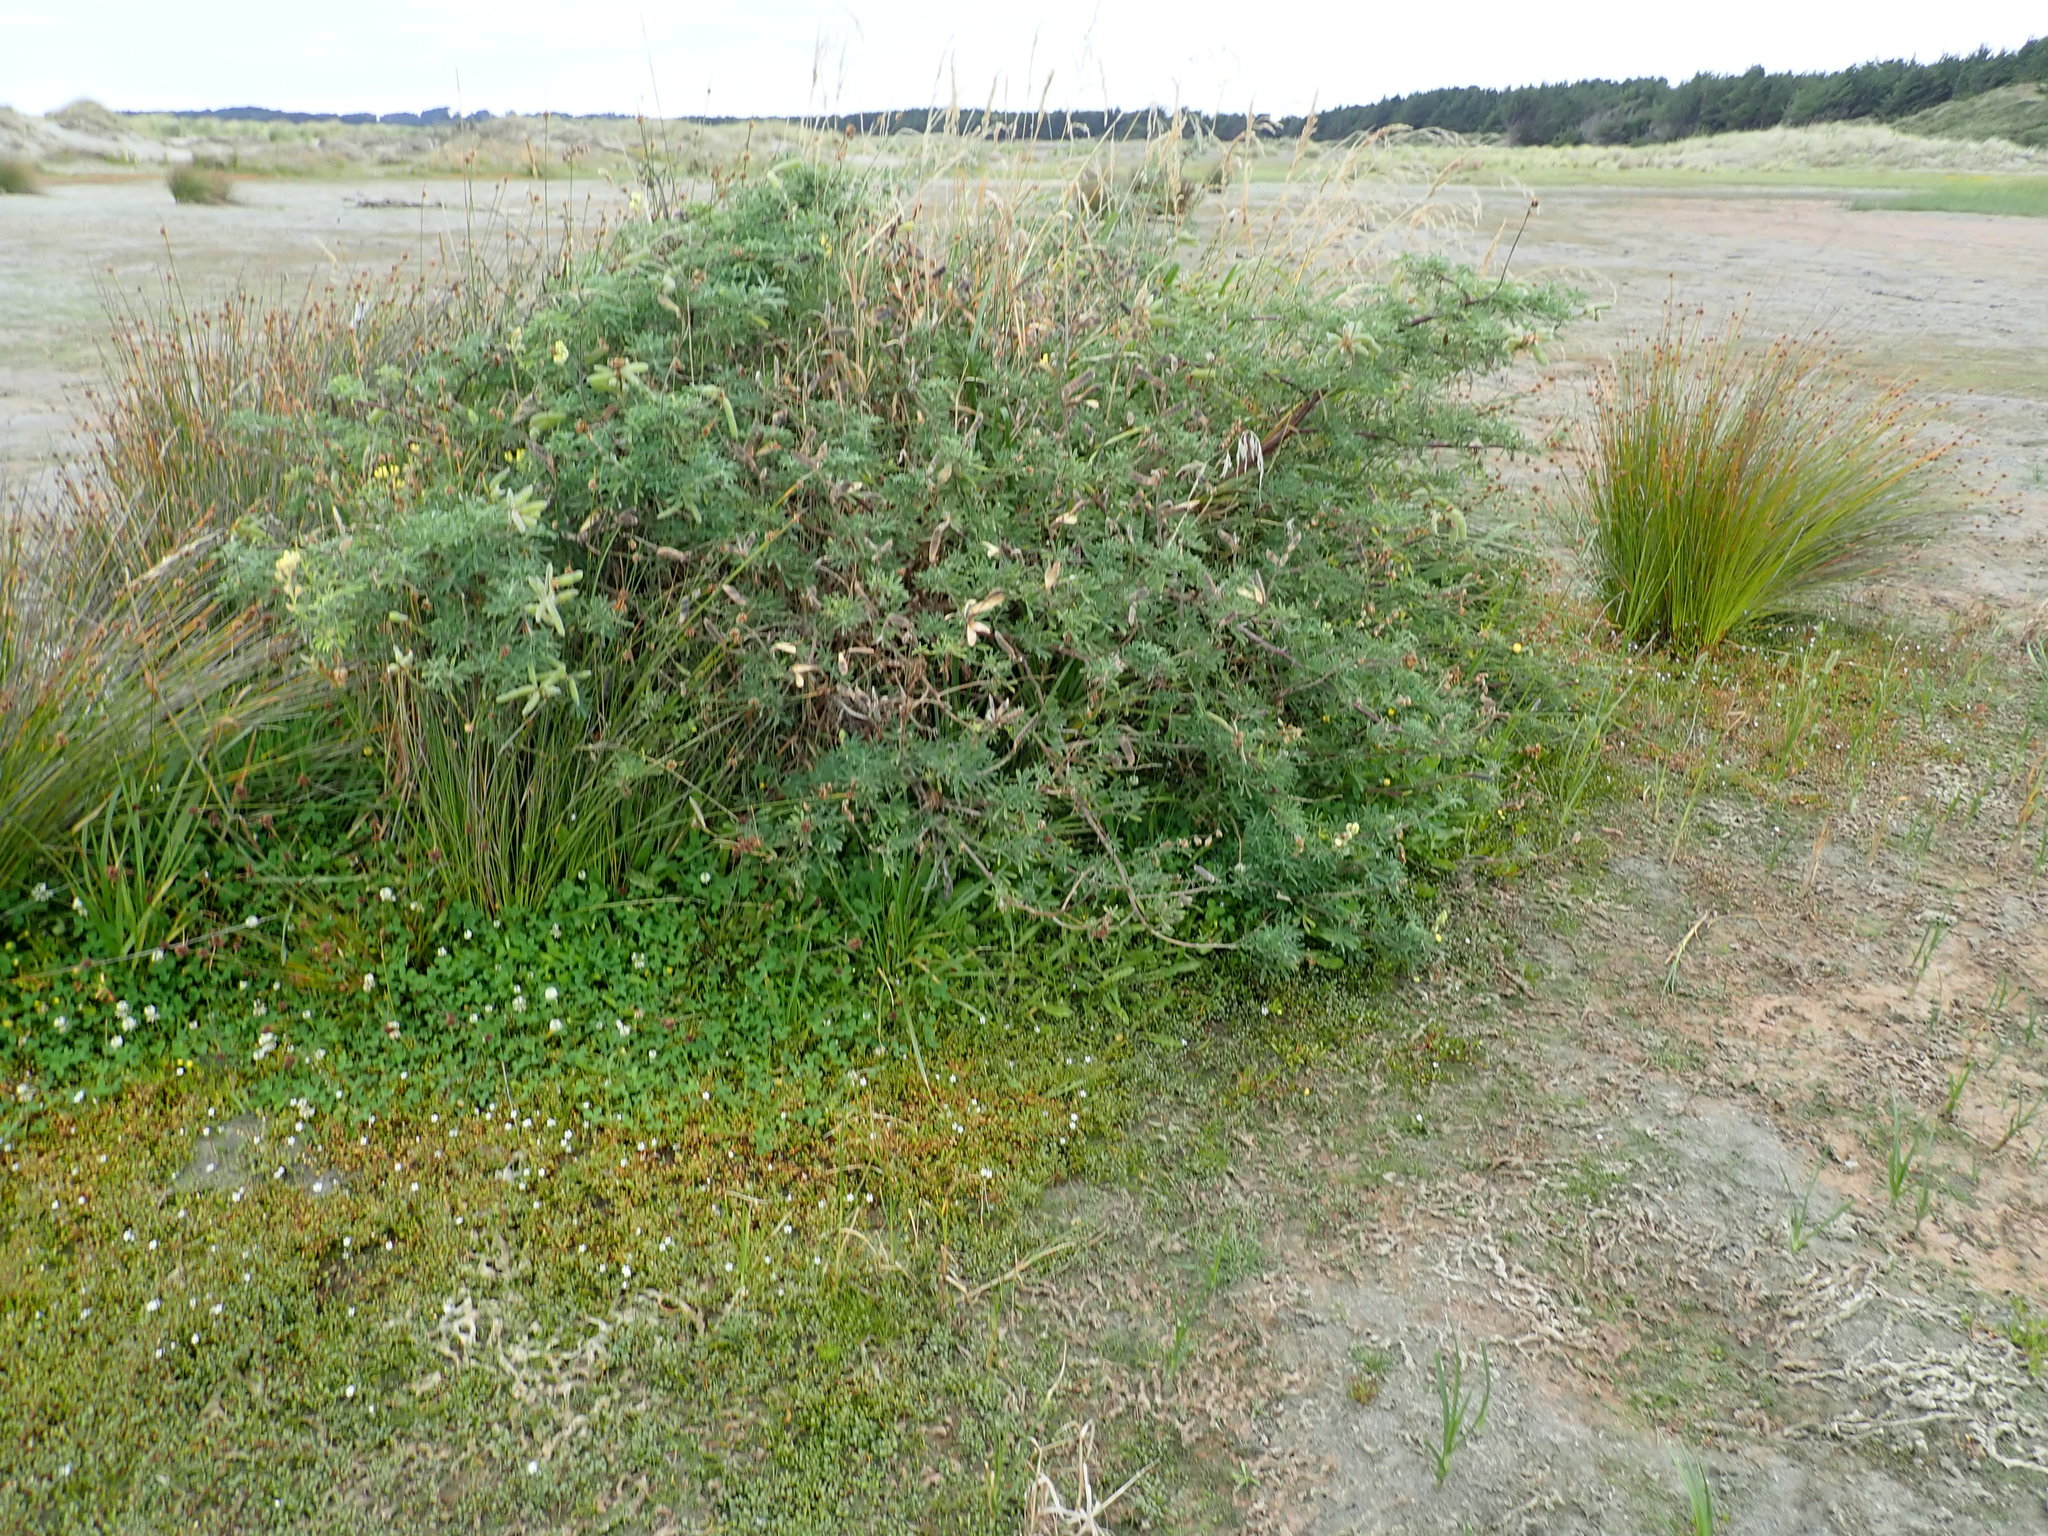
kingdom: Plantae
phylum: Tracheophyta
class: Magnoliopsida
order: Fabales
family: Fabaceae
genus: Lupinus
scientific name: Lupinus arboreus
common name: Yellow bush lupine
